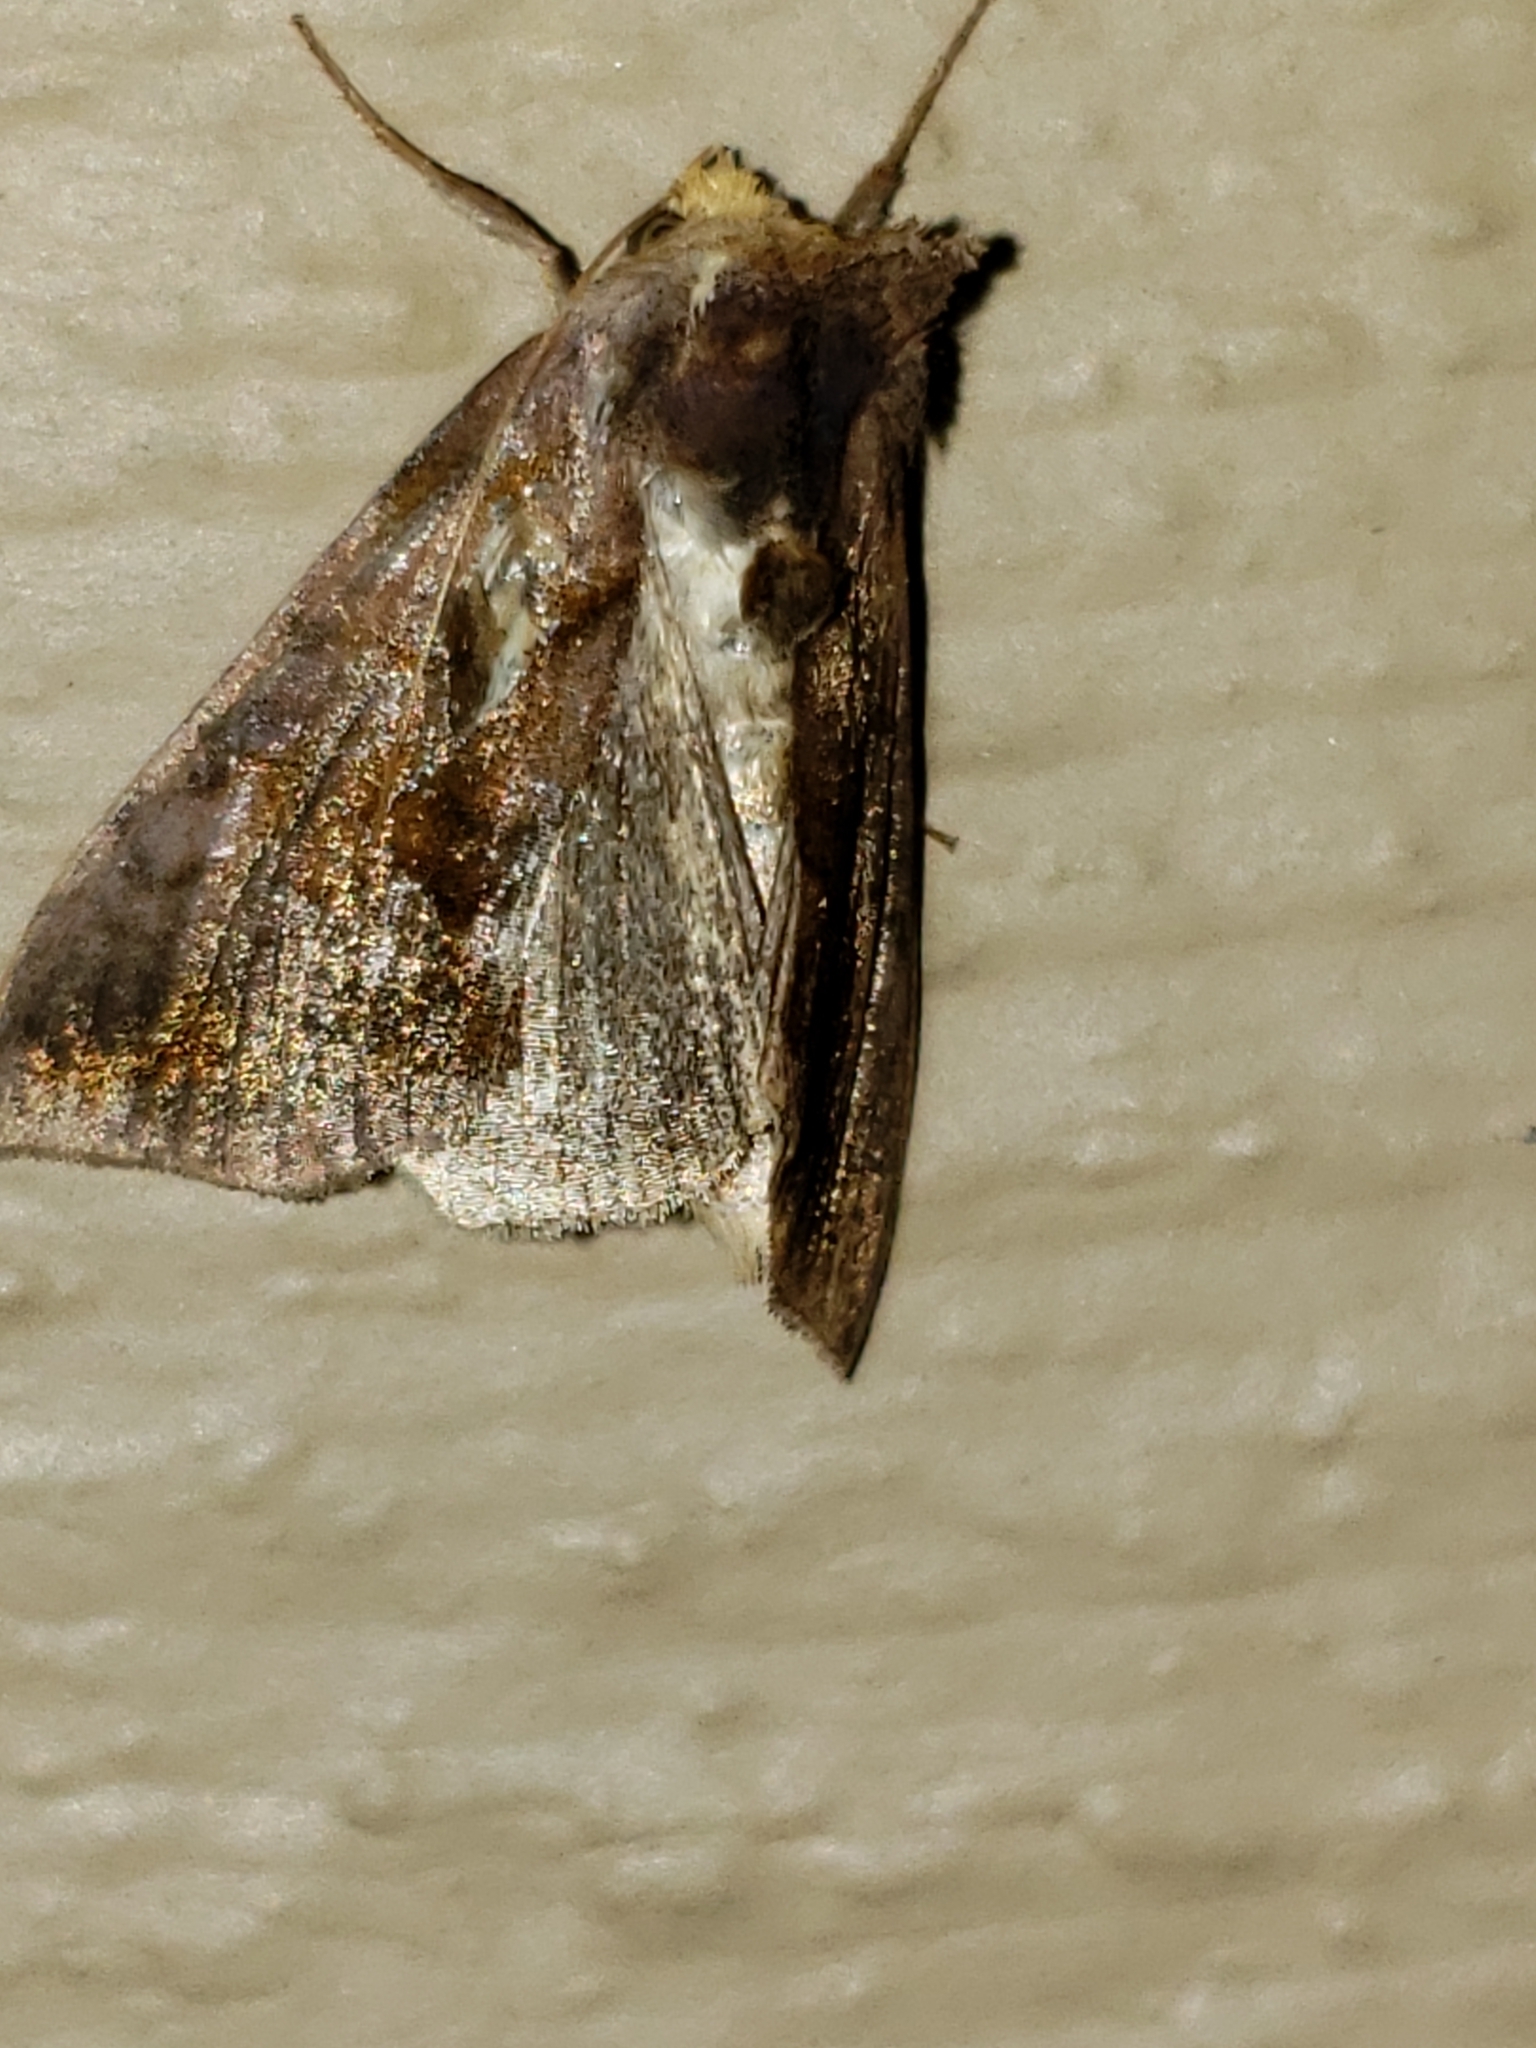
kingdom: Animalia
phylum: Arthropoda
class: Insecta
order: Lepidoptera
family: Noctuidae
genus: Allagrapha
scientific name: Allagrapha aerea
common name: Unspotted looper moth
